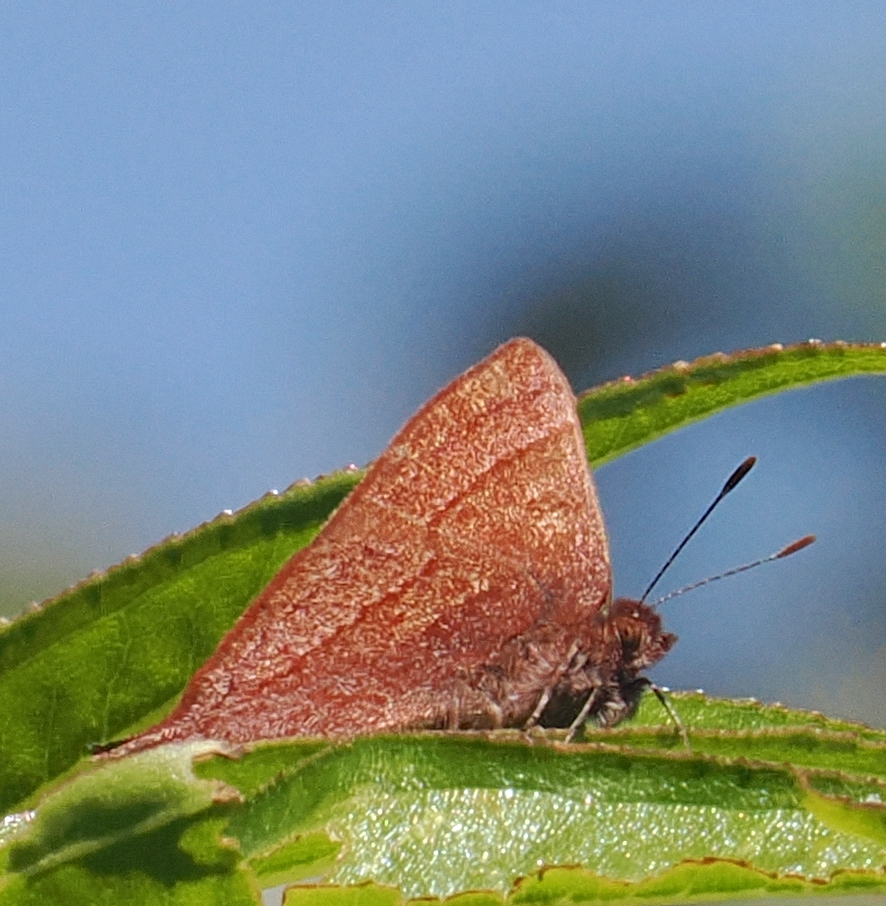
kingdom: Animalia
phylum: Arthropoda
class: Insecta
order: Lepidoptera
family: Lycaenidae
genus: Penaincisalia
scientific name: Penaincisalia loxurina
